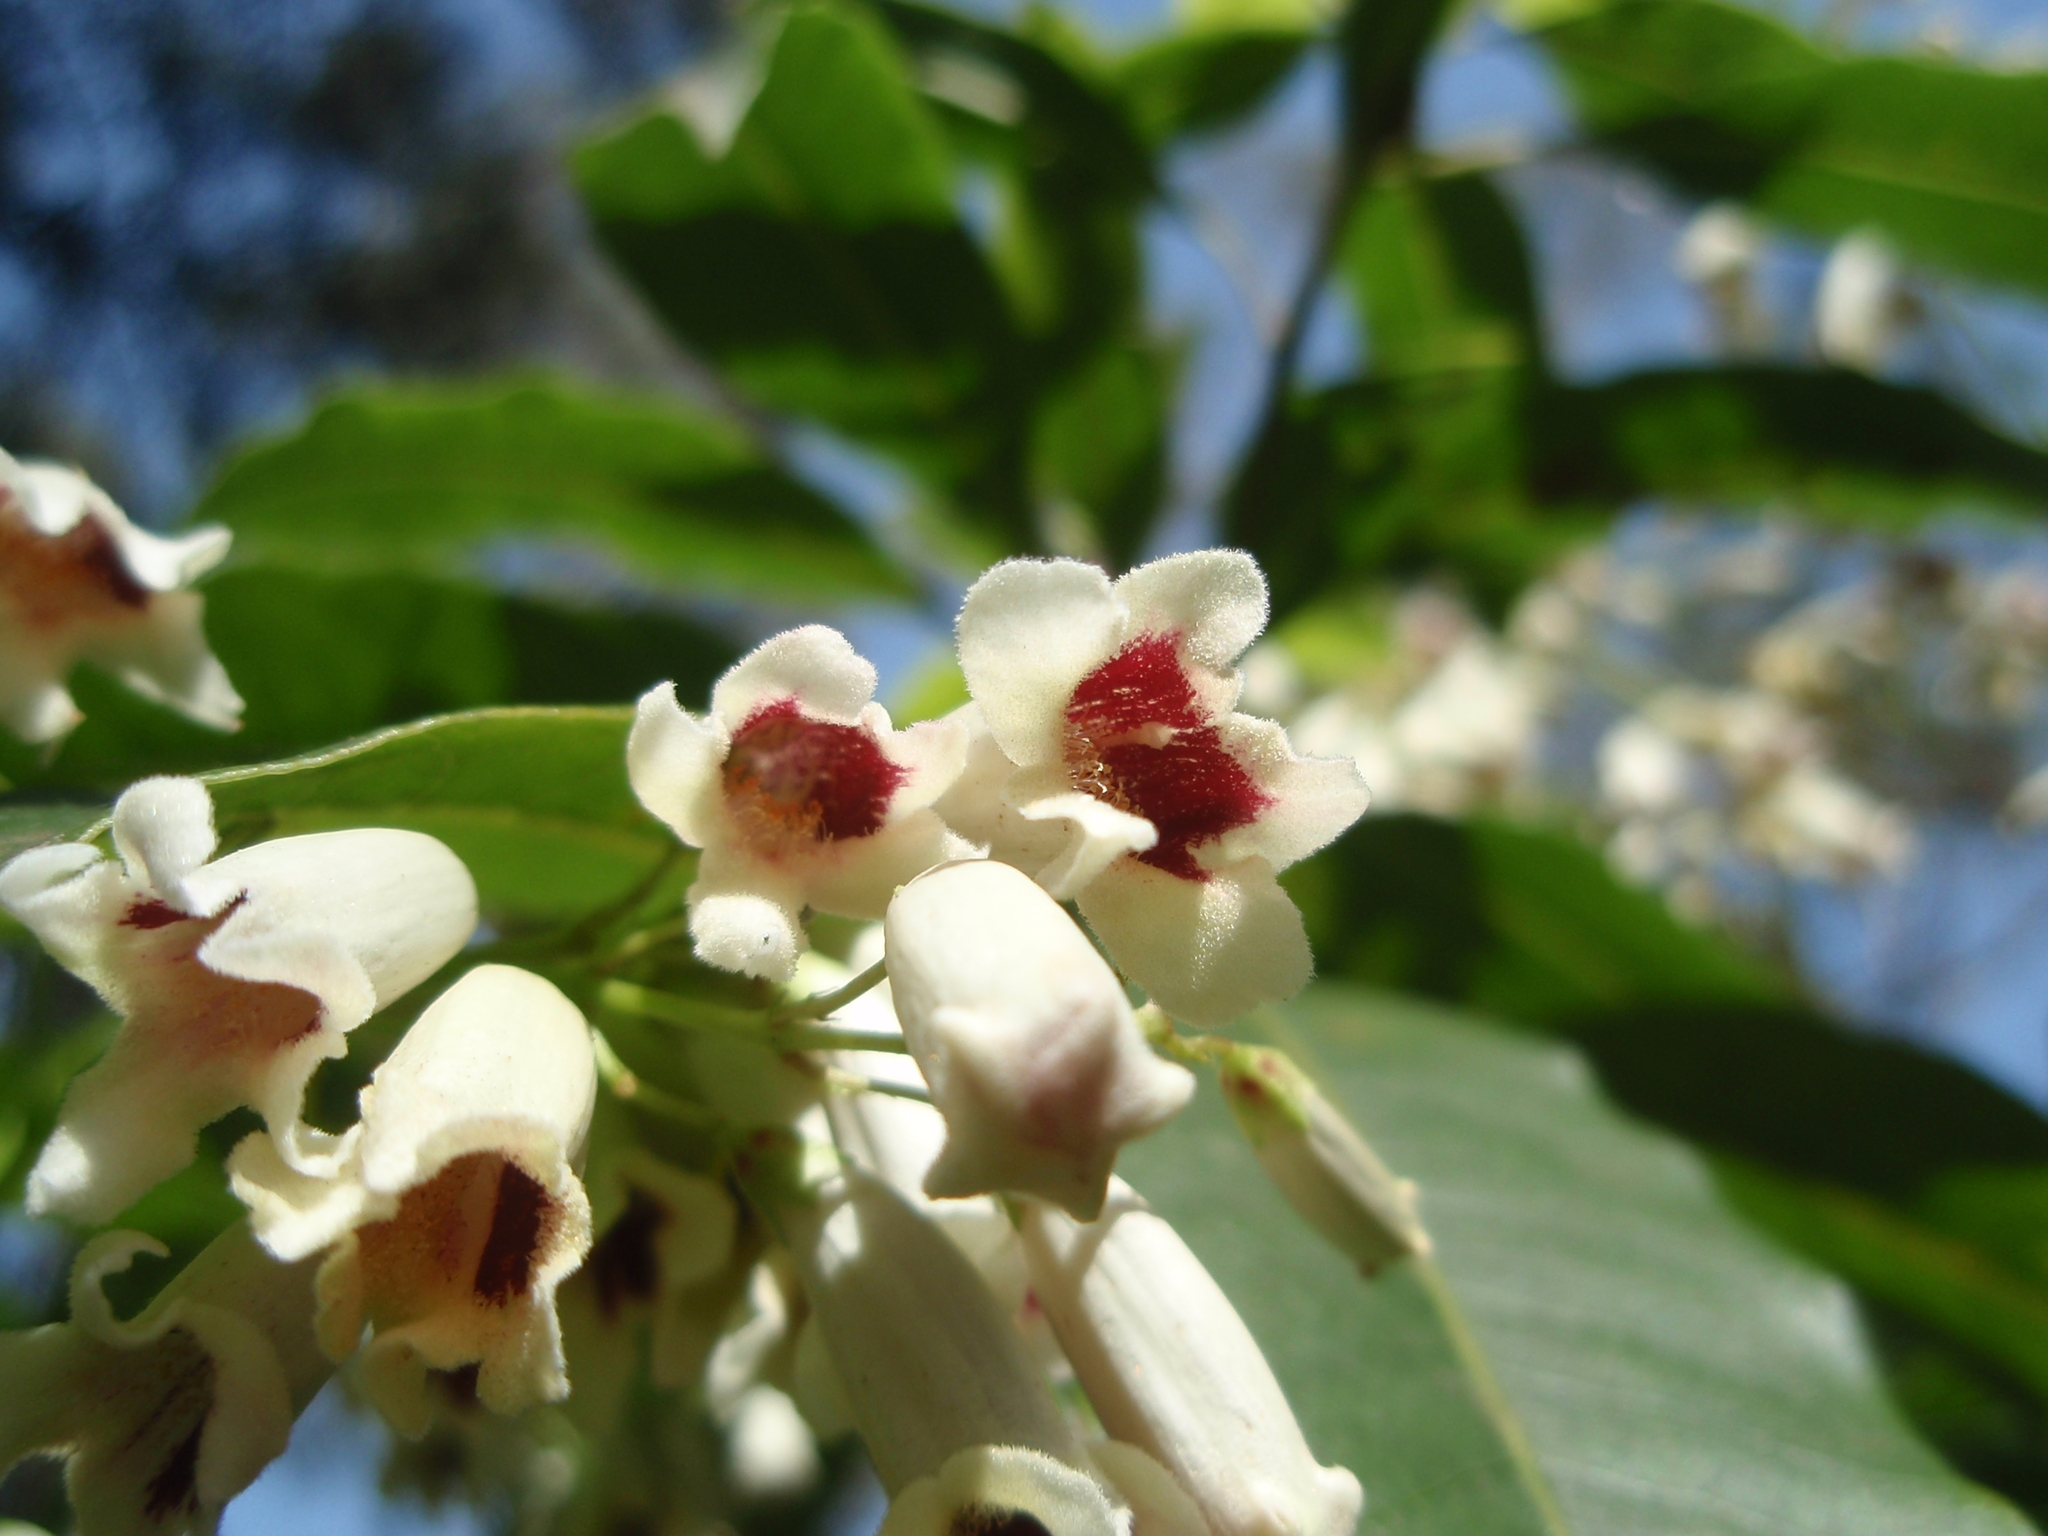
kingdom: Plantae
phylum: Tracheophyta
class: Magnoliopsida
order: Lamiales
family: Bignoniaceae
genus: Pandorea
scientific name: Pandorea pandorana
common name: Wonga-wonga-vine
